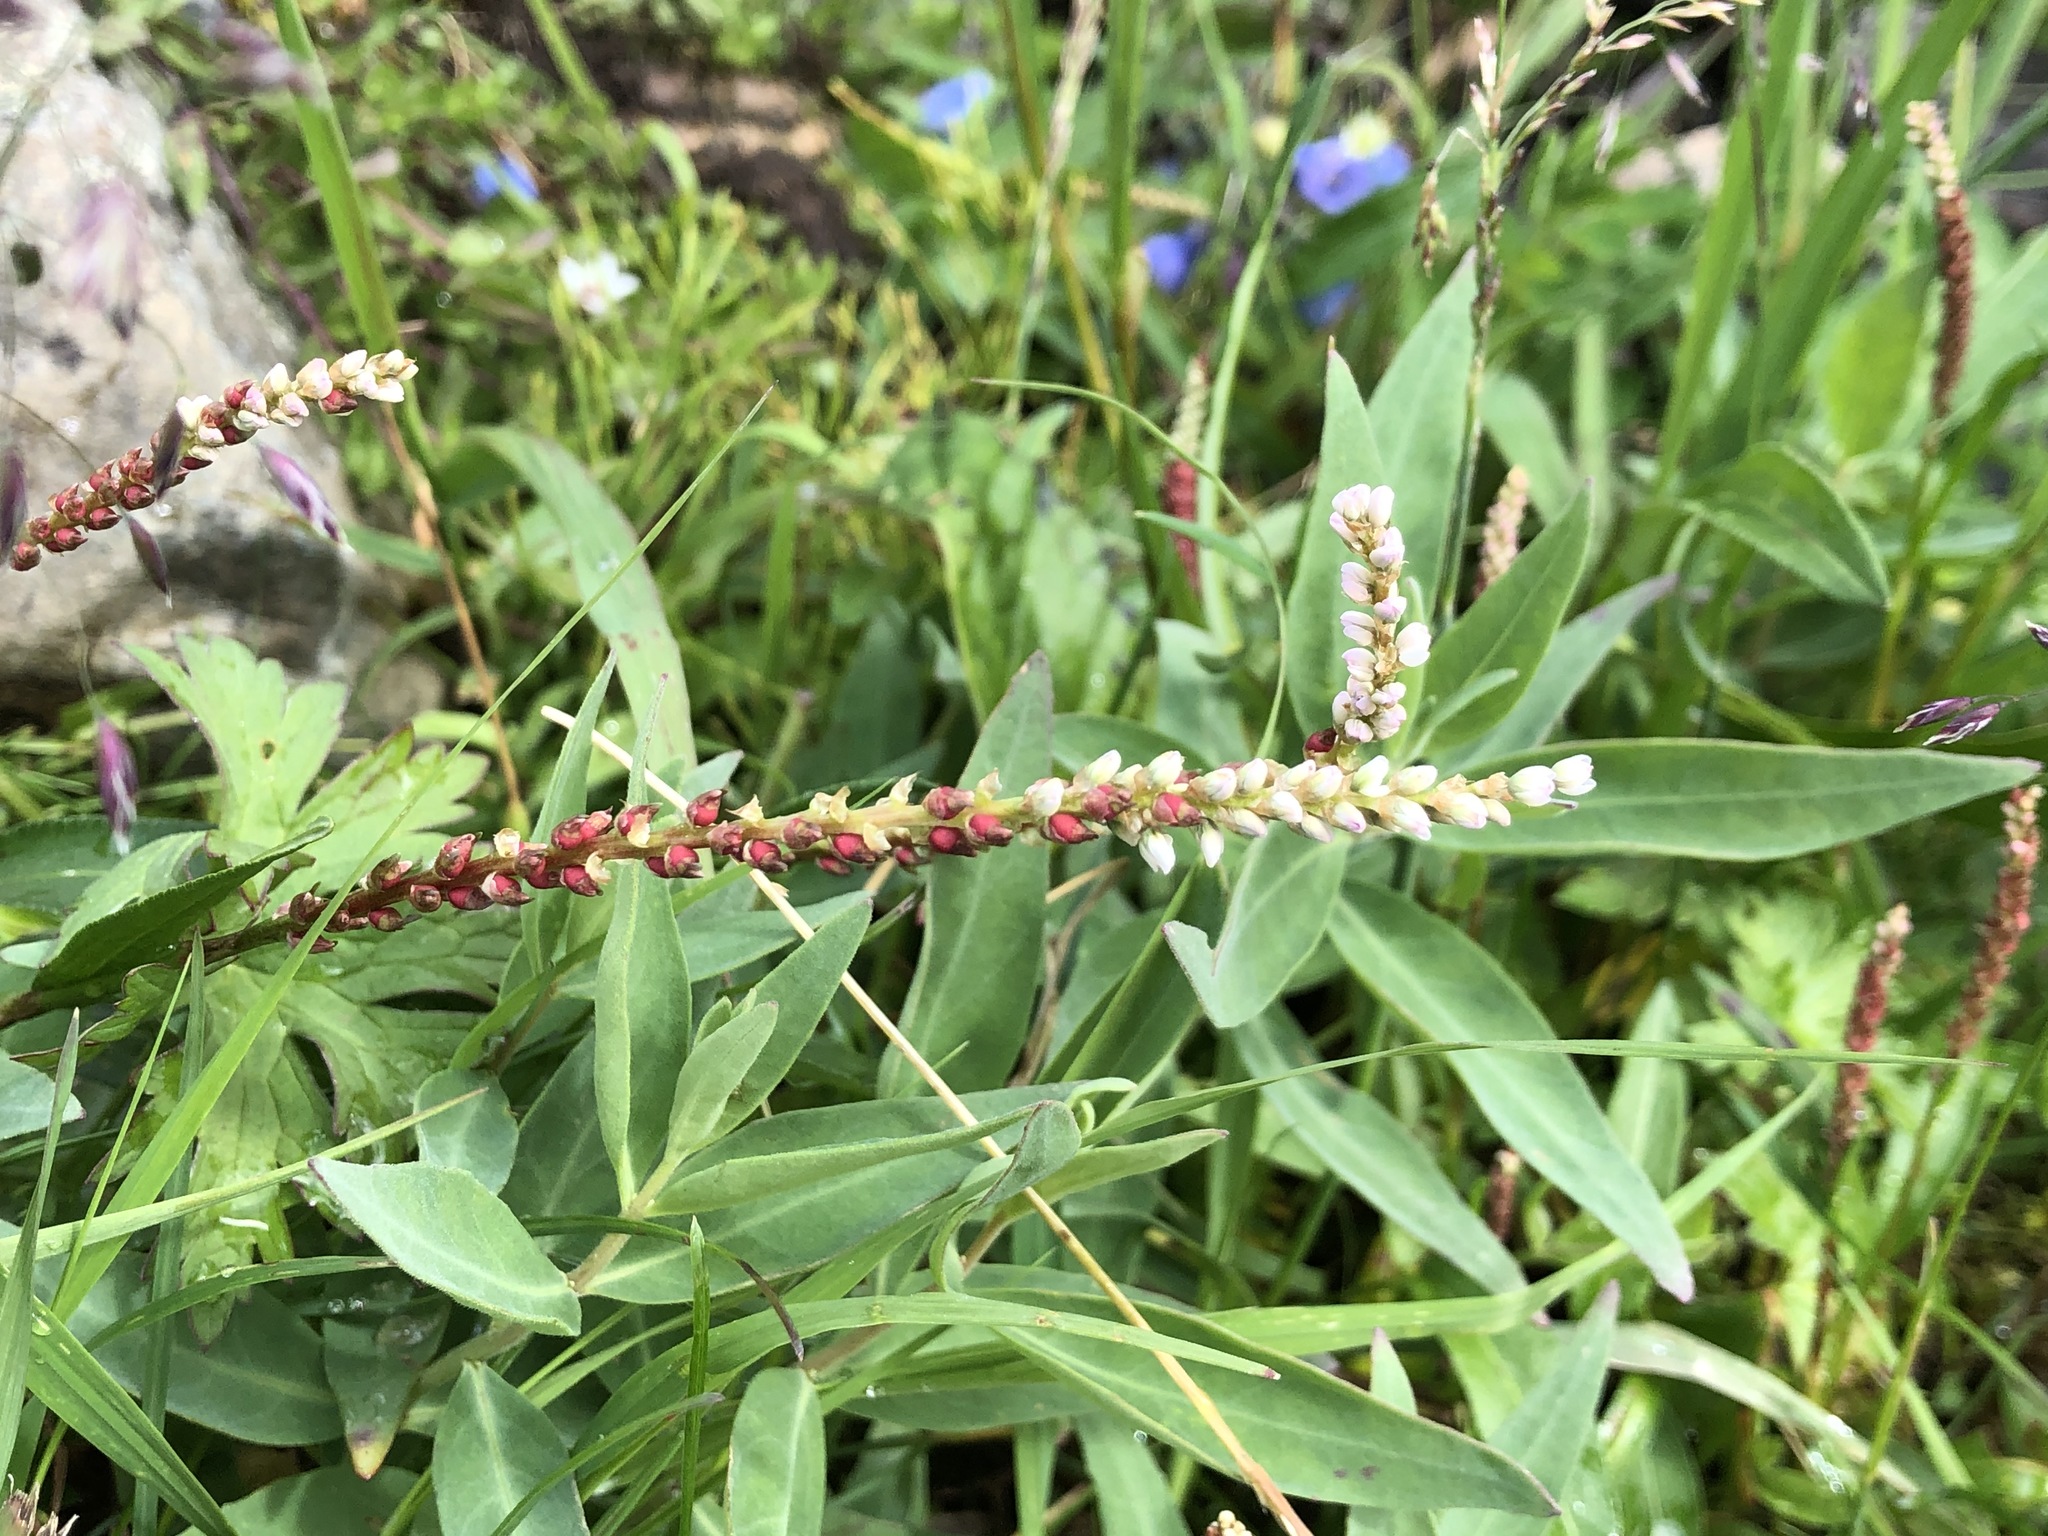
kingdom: Plantae
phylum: Tracheophyta
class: Magnoliopsida
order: Caryophyllales
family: Polygonaceae
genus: Bistorta
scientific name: Bistorta vivipara
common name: Alpine bistort
